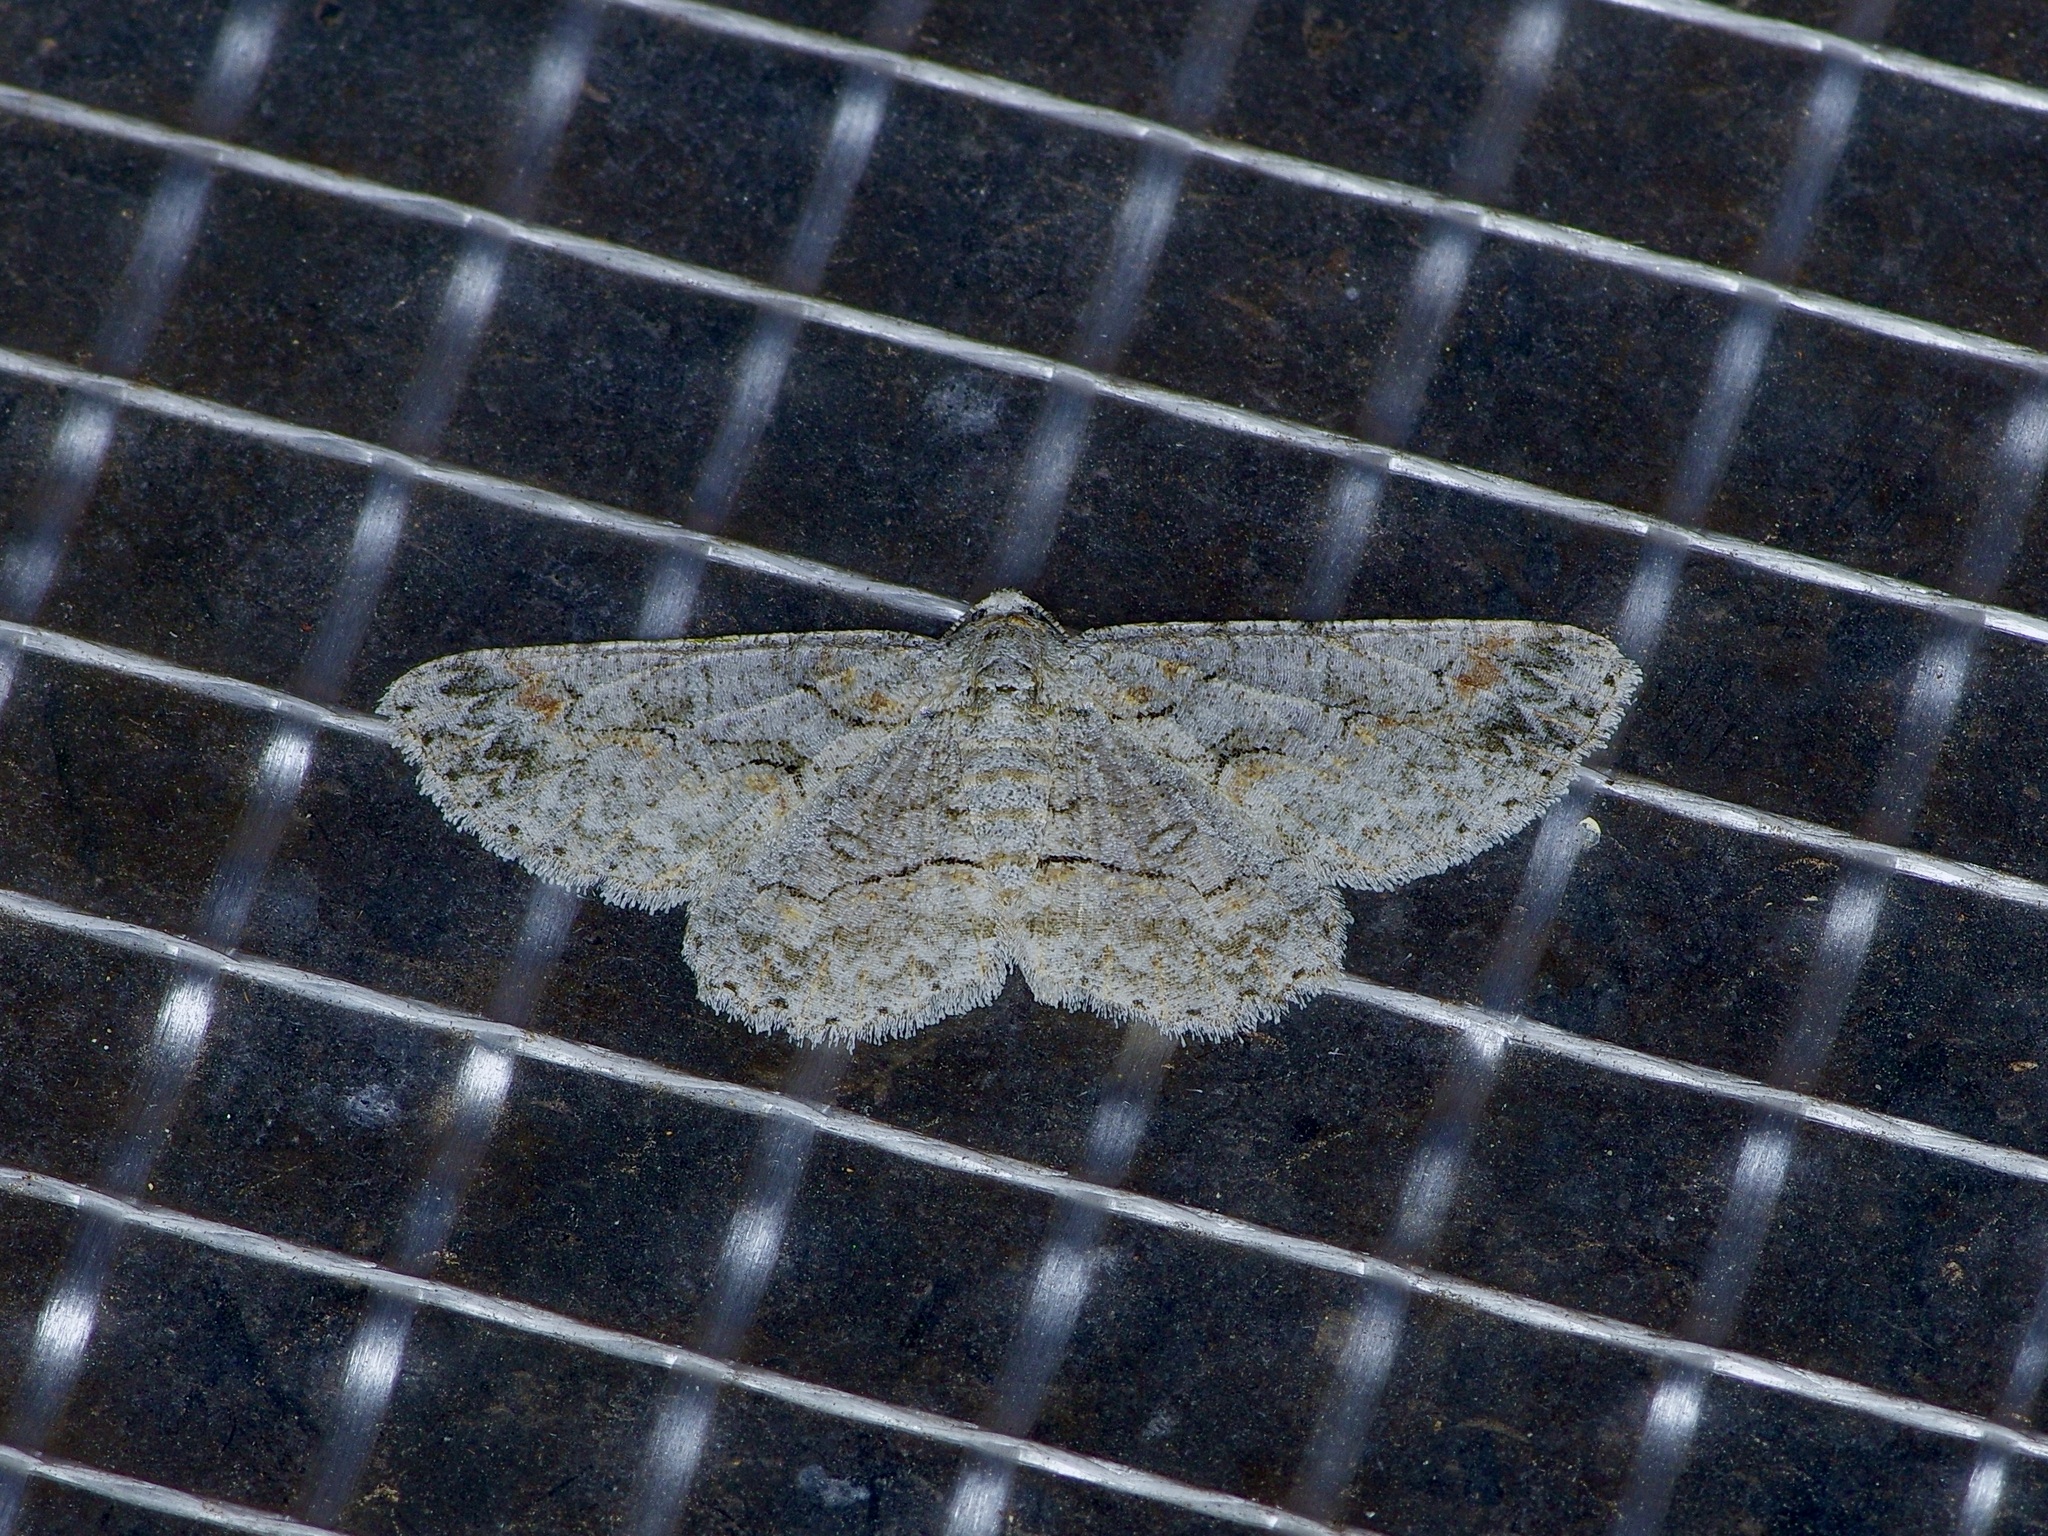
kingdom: Animalia
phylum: Arthropoda
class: Insecta
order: Lepidoptera
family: Geometridae
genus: Iridopsis
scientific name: Iridopsis defectaria
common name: Brown-shaded gray
